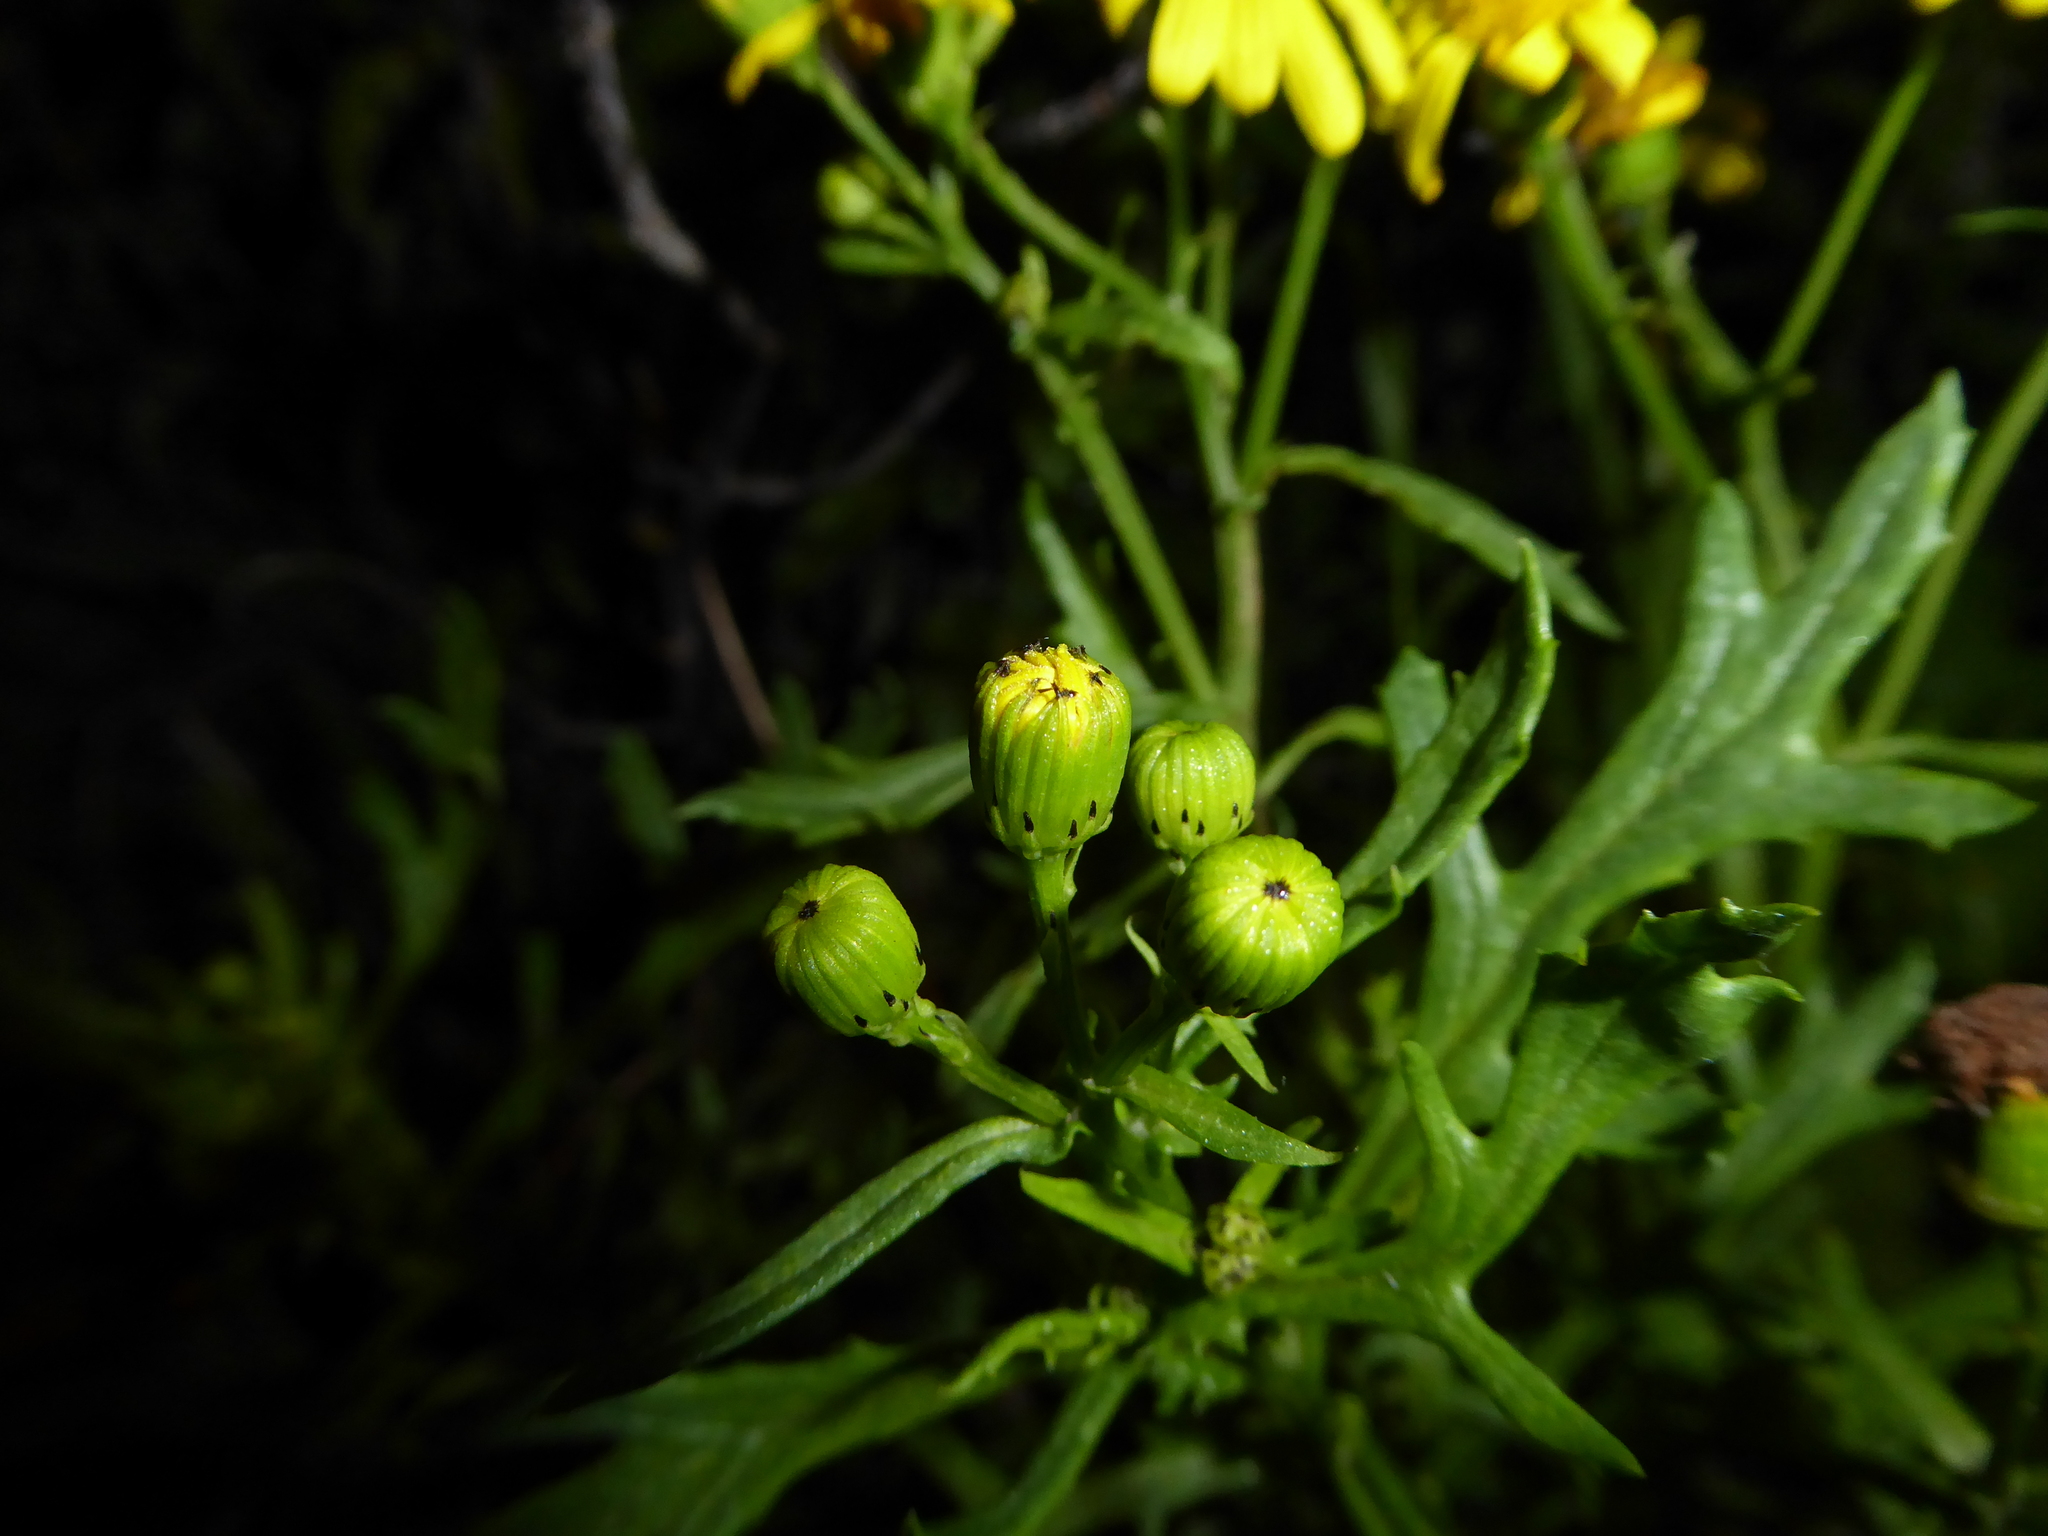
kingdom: Plantae
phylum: Tracheophyta
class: Magnoliopsida
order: Asterales
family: Asteraceae
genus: Senecio
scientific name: Senecio squalidus
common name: Oxford ragwort
